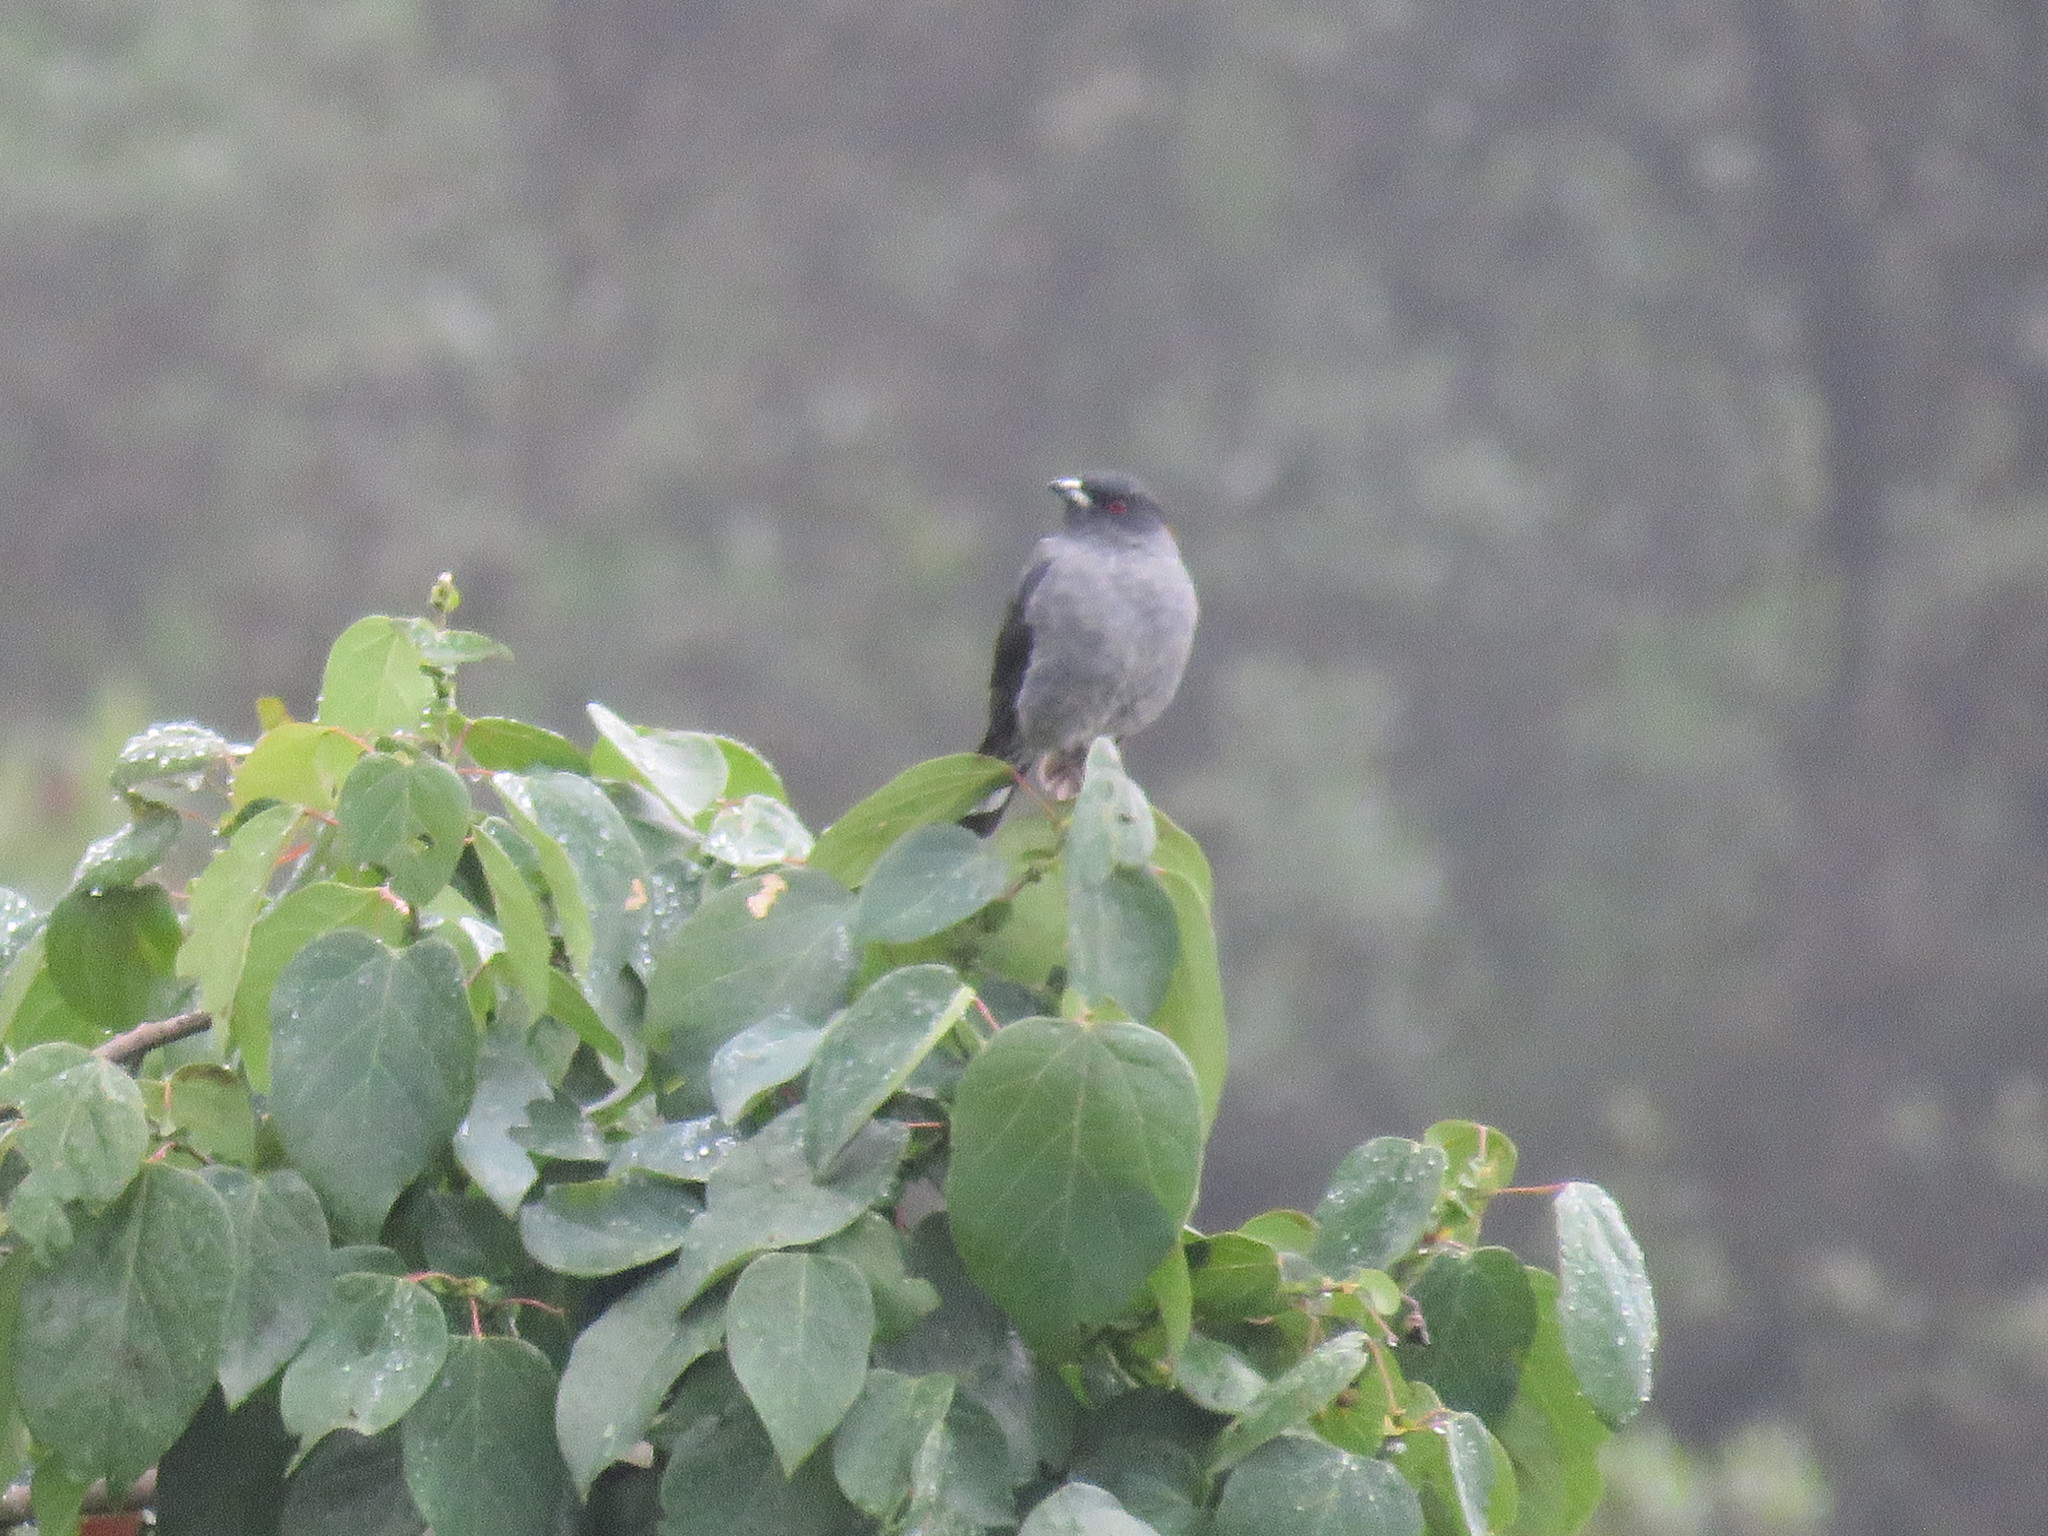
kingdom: Animalia
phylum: Chordata
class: Aves
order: Passeriformes
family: Cotingidae
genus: Ampelion
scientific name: Ampelion rubrocristatus
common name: Red-crested cotinga
